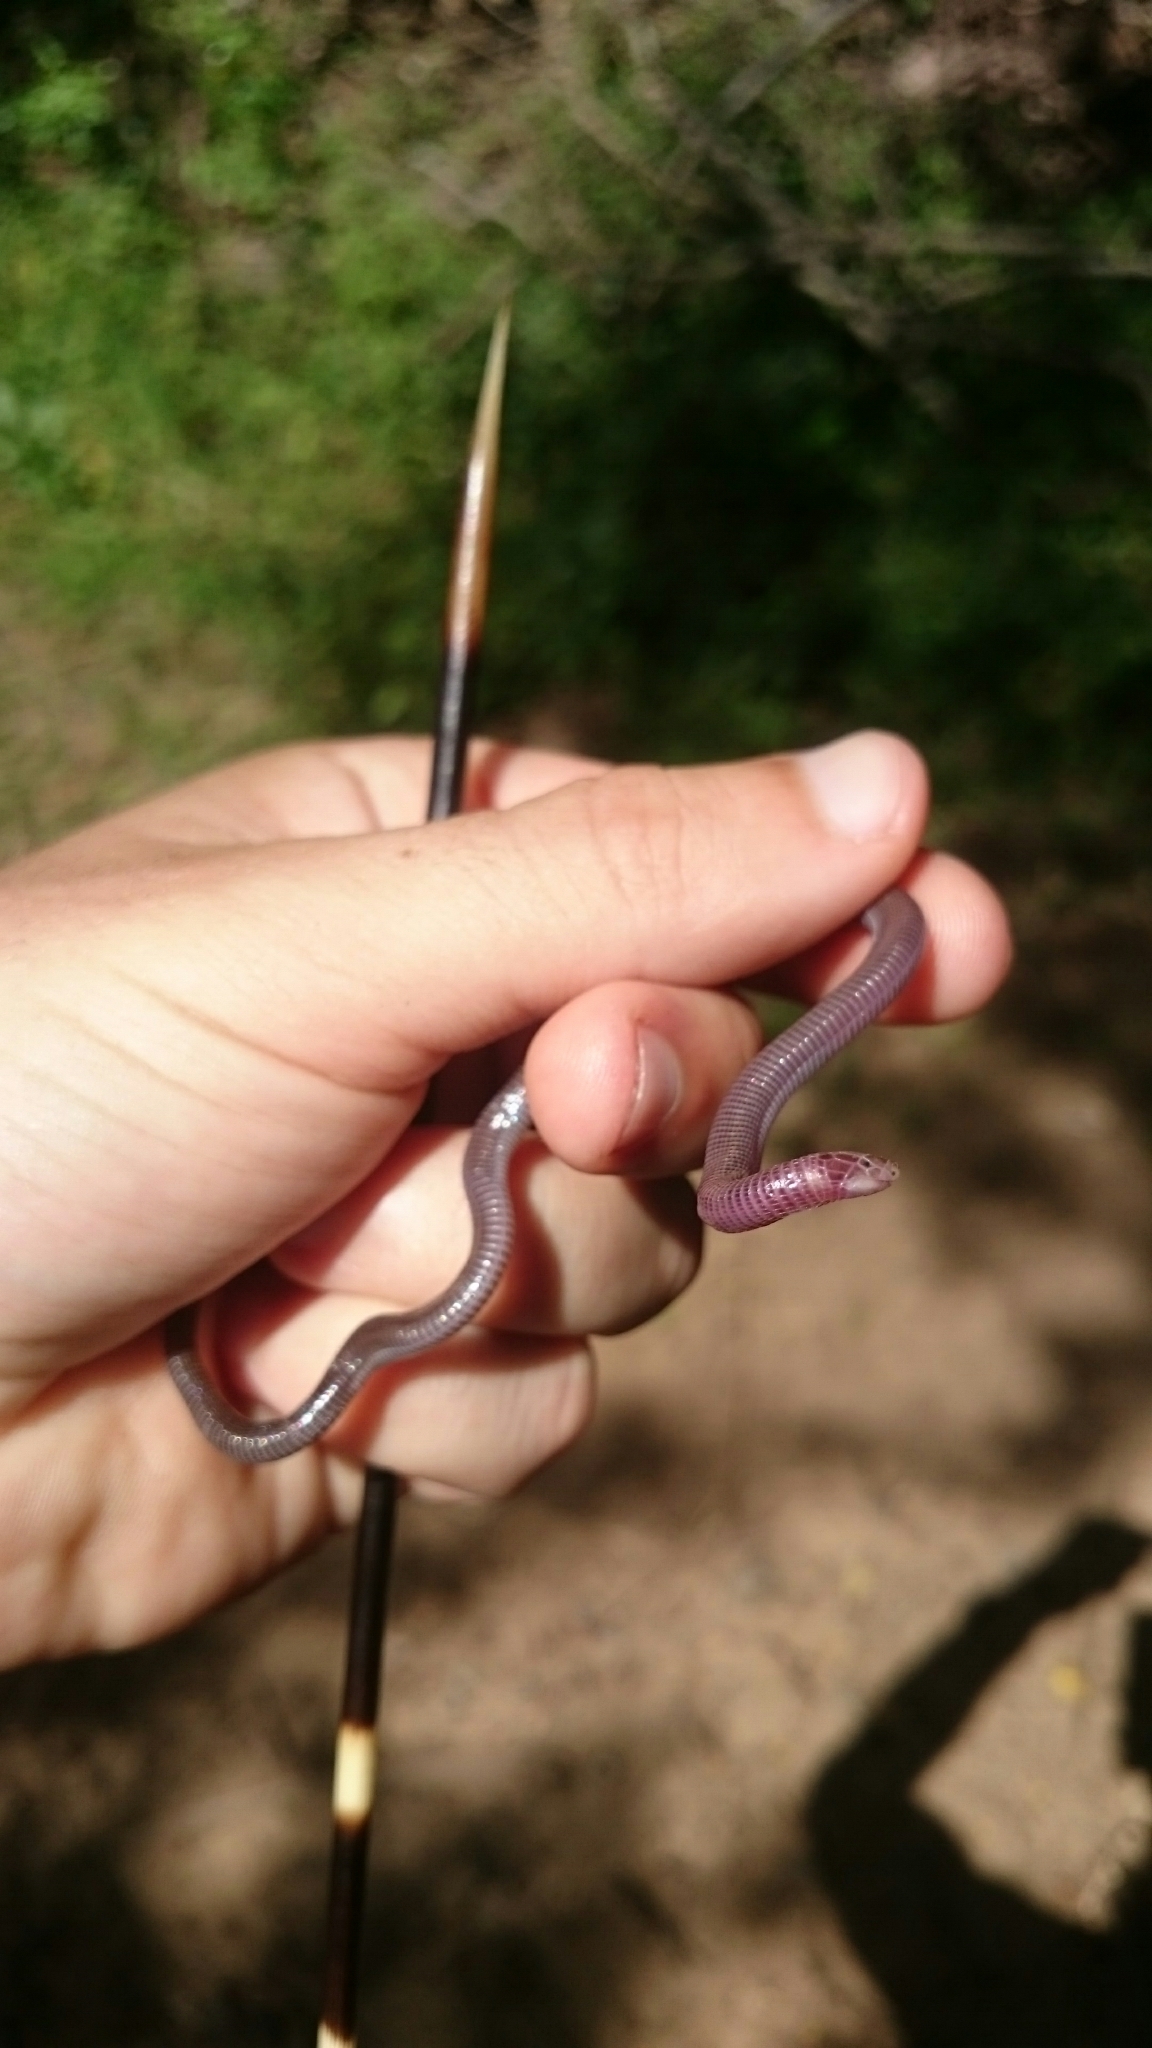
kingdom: Animalia
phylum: Chordata
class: Squamata
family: Amphisbaenidae
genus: Zygaspis
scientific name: Zygaspis arenicola
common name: Sand-dwelling dwarf worm lizard
